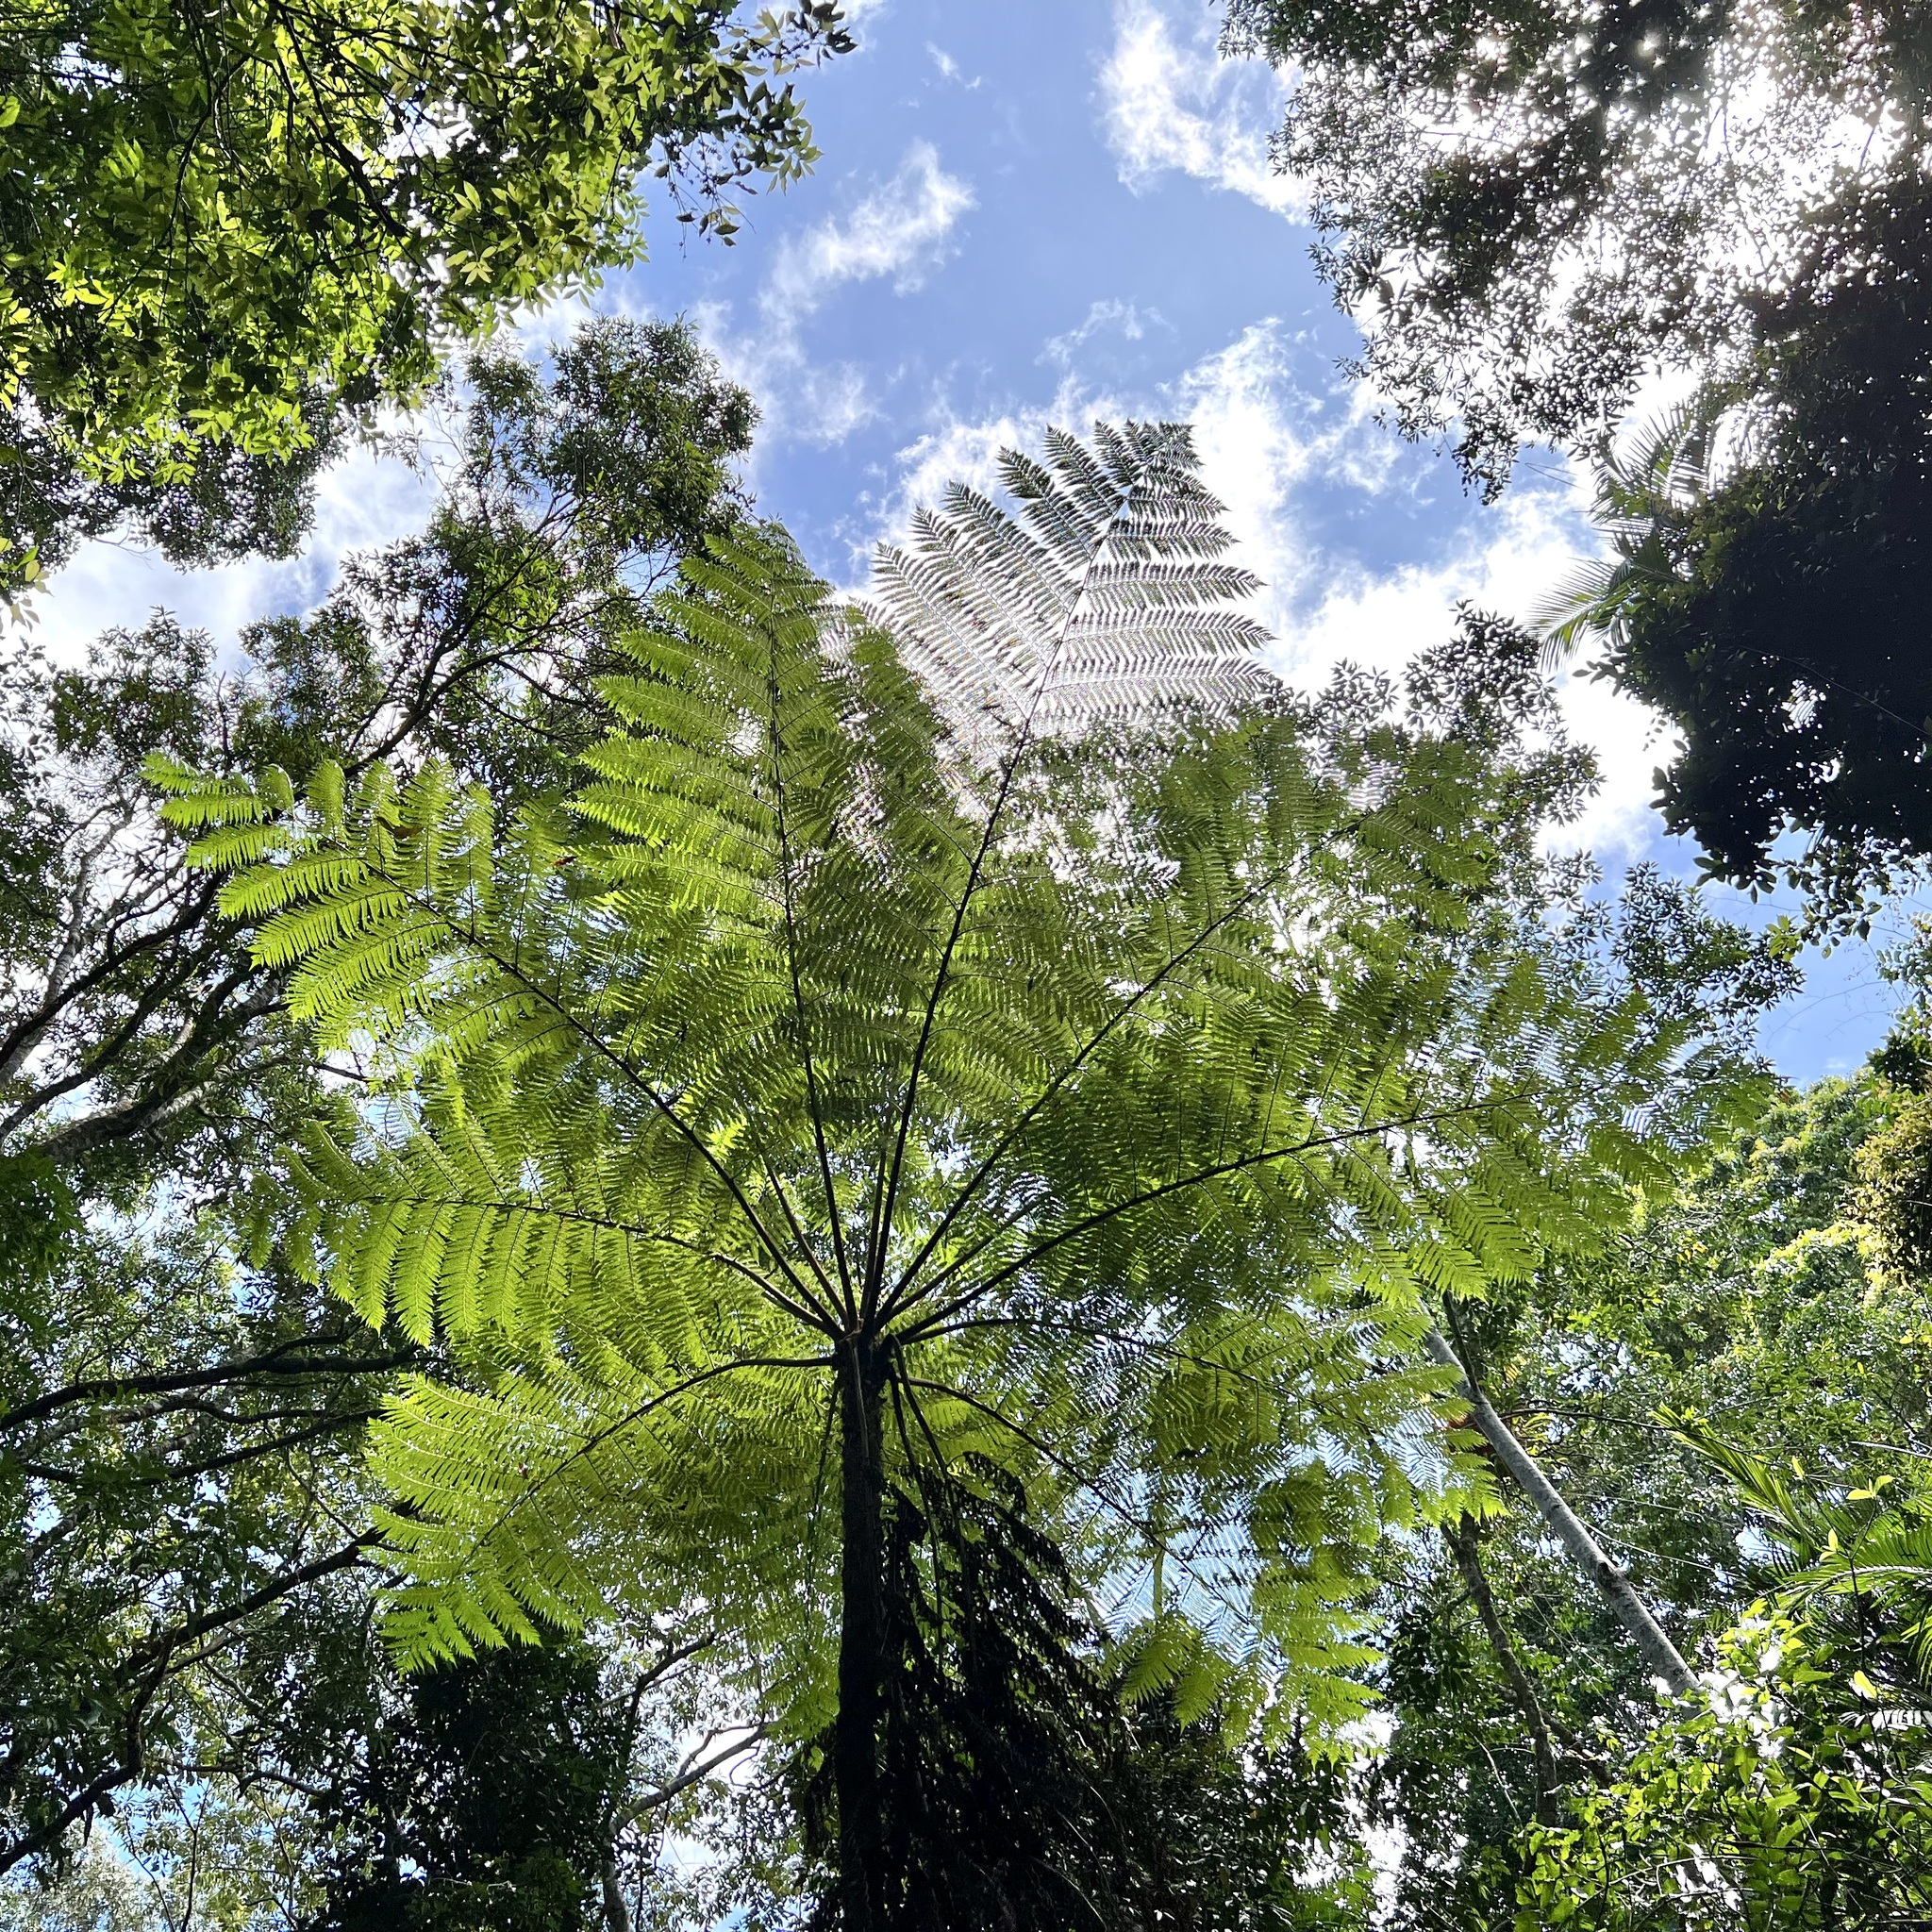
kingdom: Plantae
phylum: Tracheophyta
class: Polypodiopsida
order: Cyatheales
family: Cyatheaceae
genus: Sphaeropteris
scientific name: Sphaeropteris cooperi
